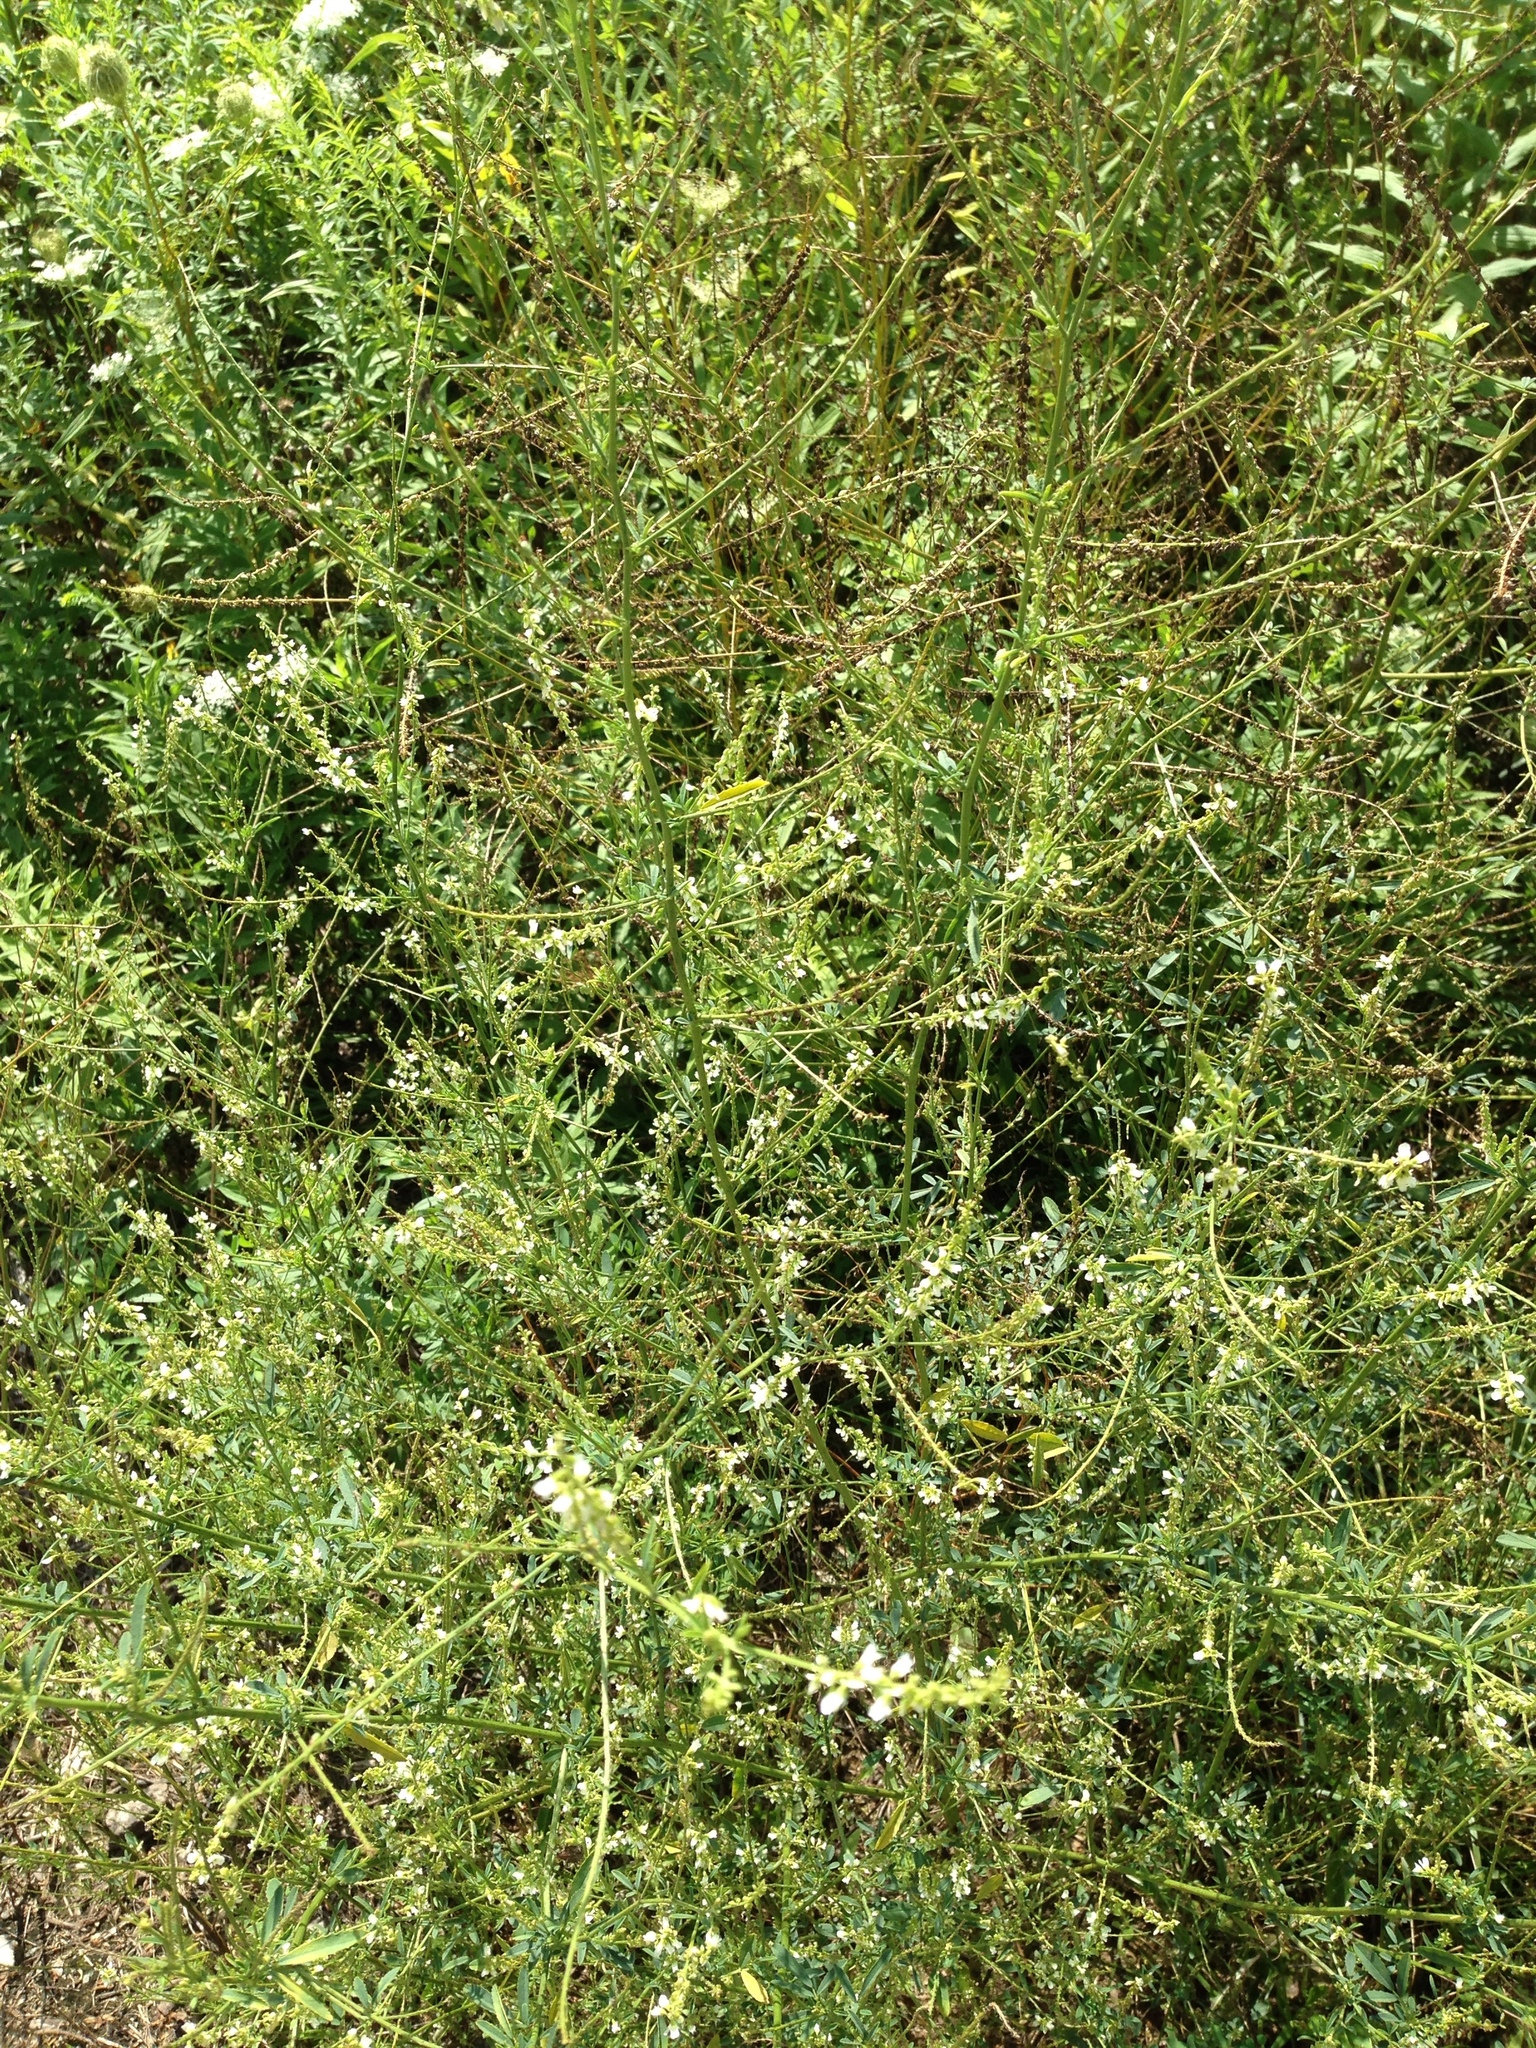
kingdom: Plantae
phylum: Tracheophyta
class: Magnoliopsida
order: Fabales
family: Fabaceae
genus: Melilotus
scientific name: Melilotus albus
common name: White melilot
